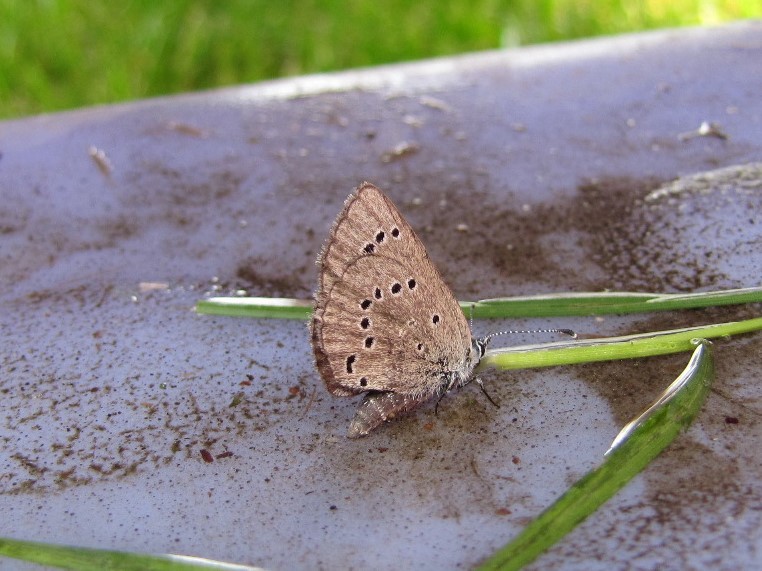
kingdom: Animalia
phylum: Arthropoda
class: Insecta
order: Lepidoptera
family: Lycaenidae
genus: Glaucopsyche
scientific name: Glaucopsyche lygdamus
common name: Silvery blue
